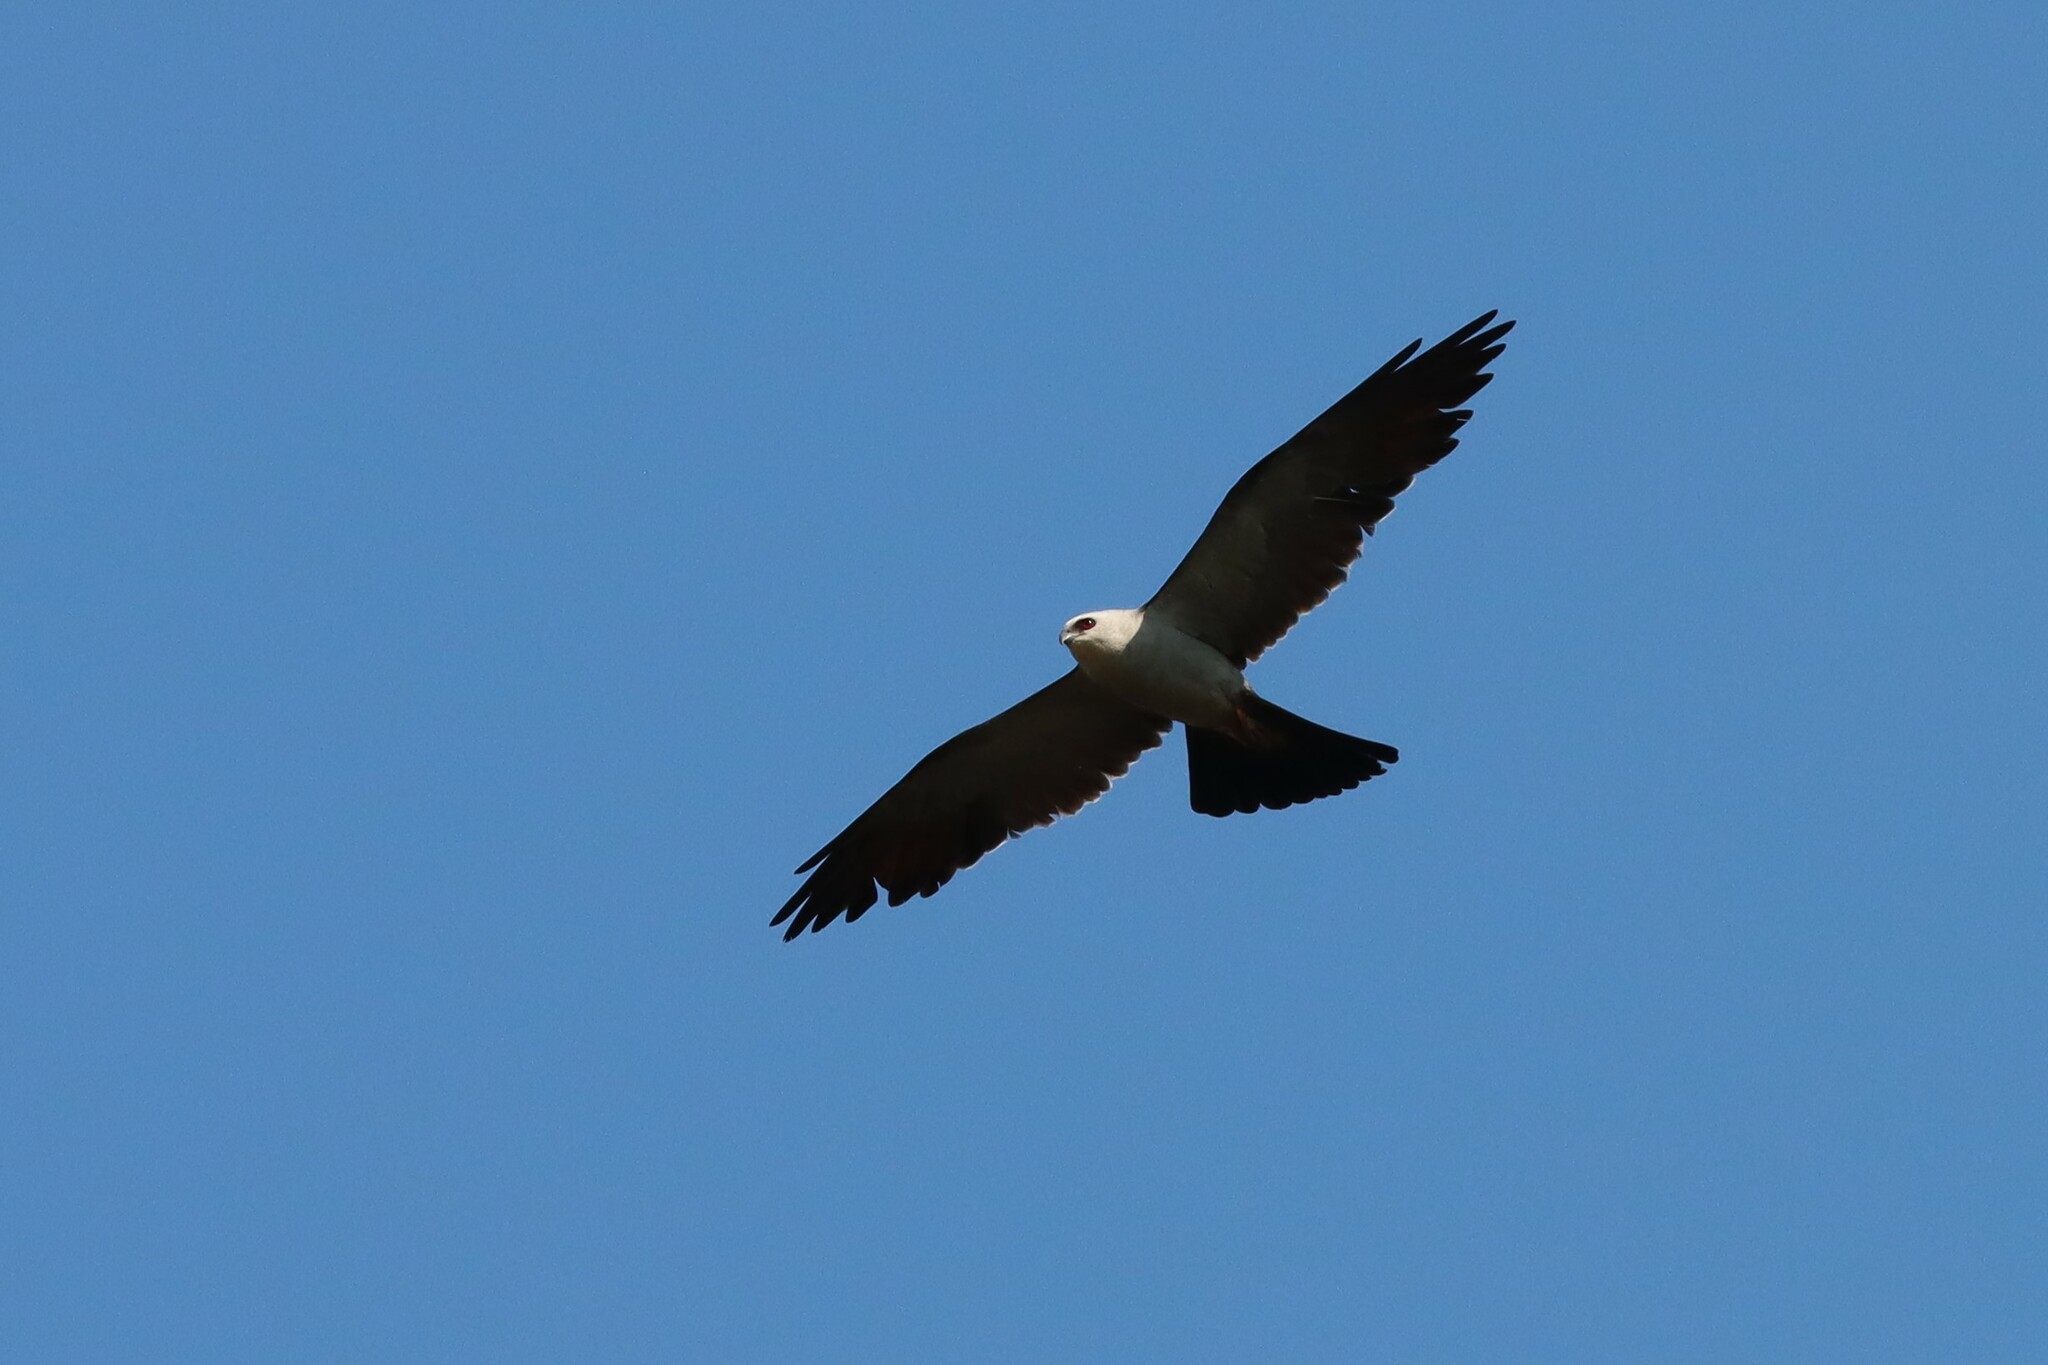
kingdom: Animalia
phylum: Chordata
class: Aves
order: Accipitriformes
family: Accipitridae
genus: Ictinia
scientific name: Ictinia mississippiensis
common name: Mississippi kite
